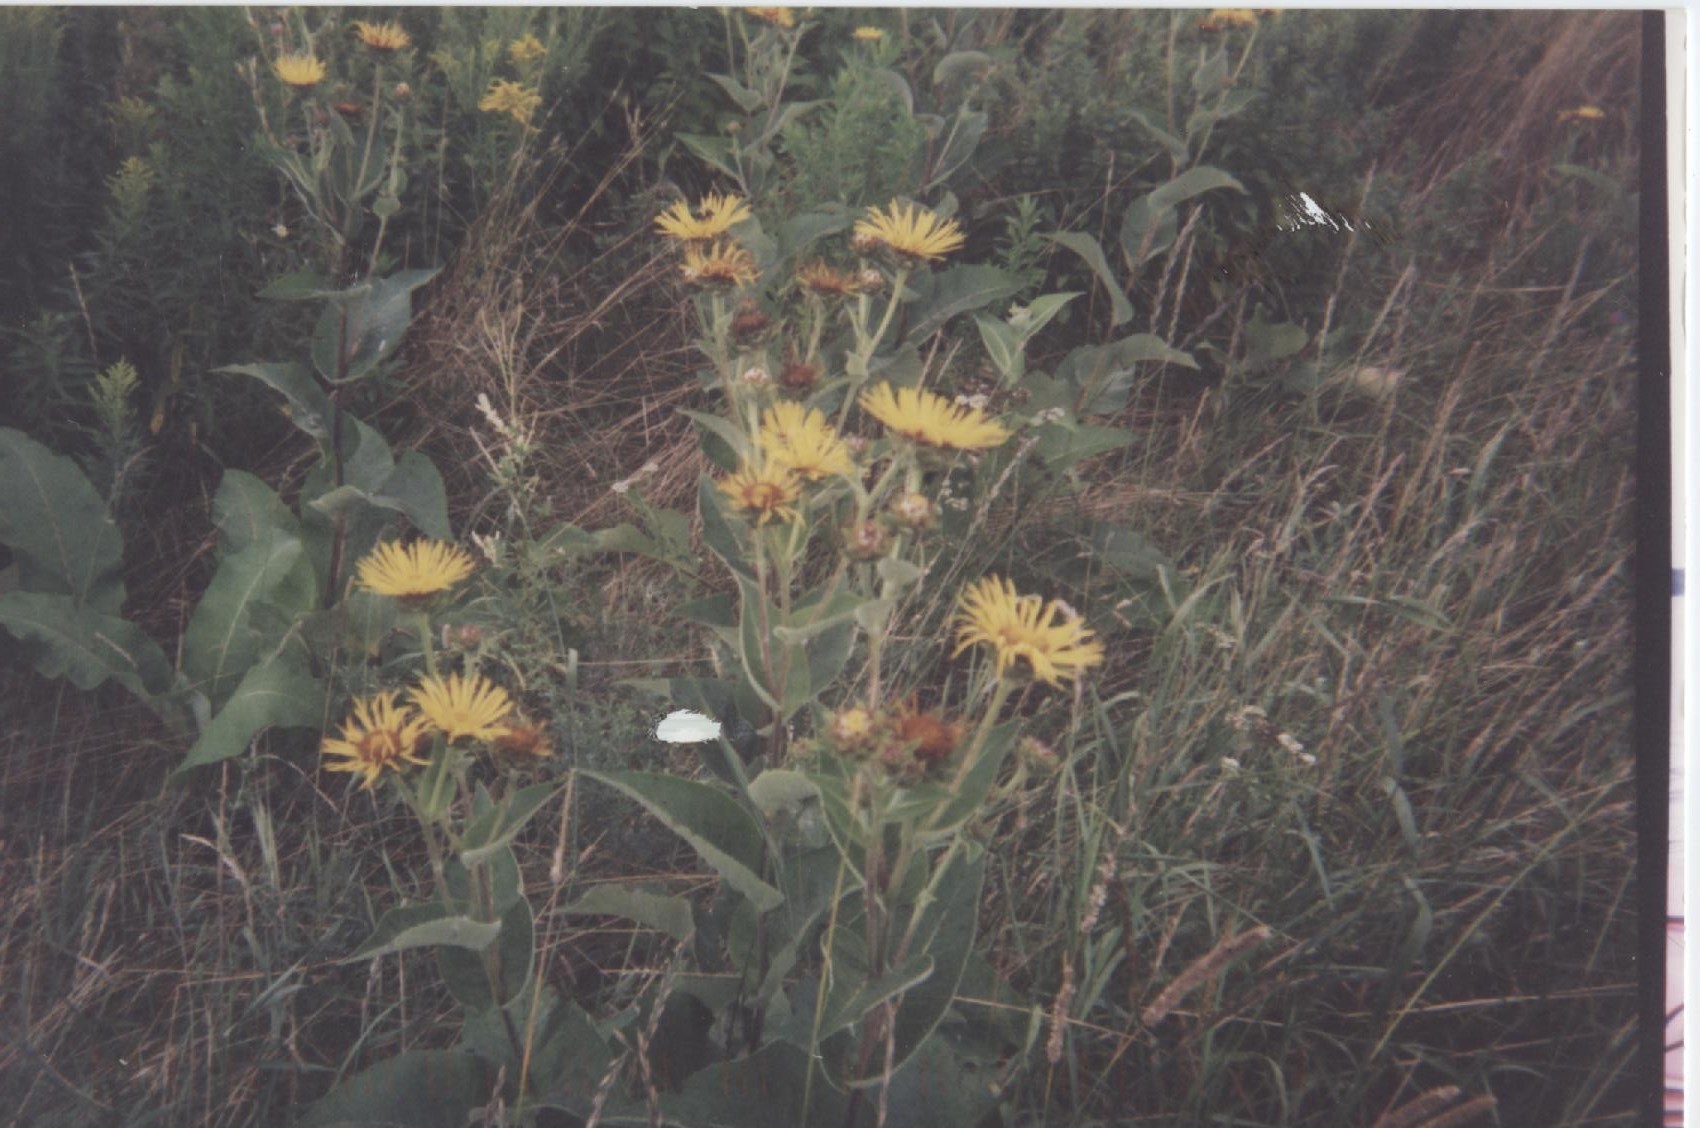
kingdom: Plantae
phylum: Tracheophyta
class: Magnoliopsida
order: Asterales
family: Asteraceae
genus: Inula
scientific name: Inula helenium
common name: Elecampane
